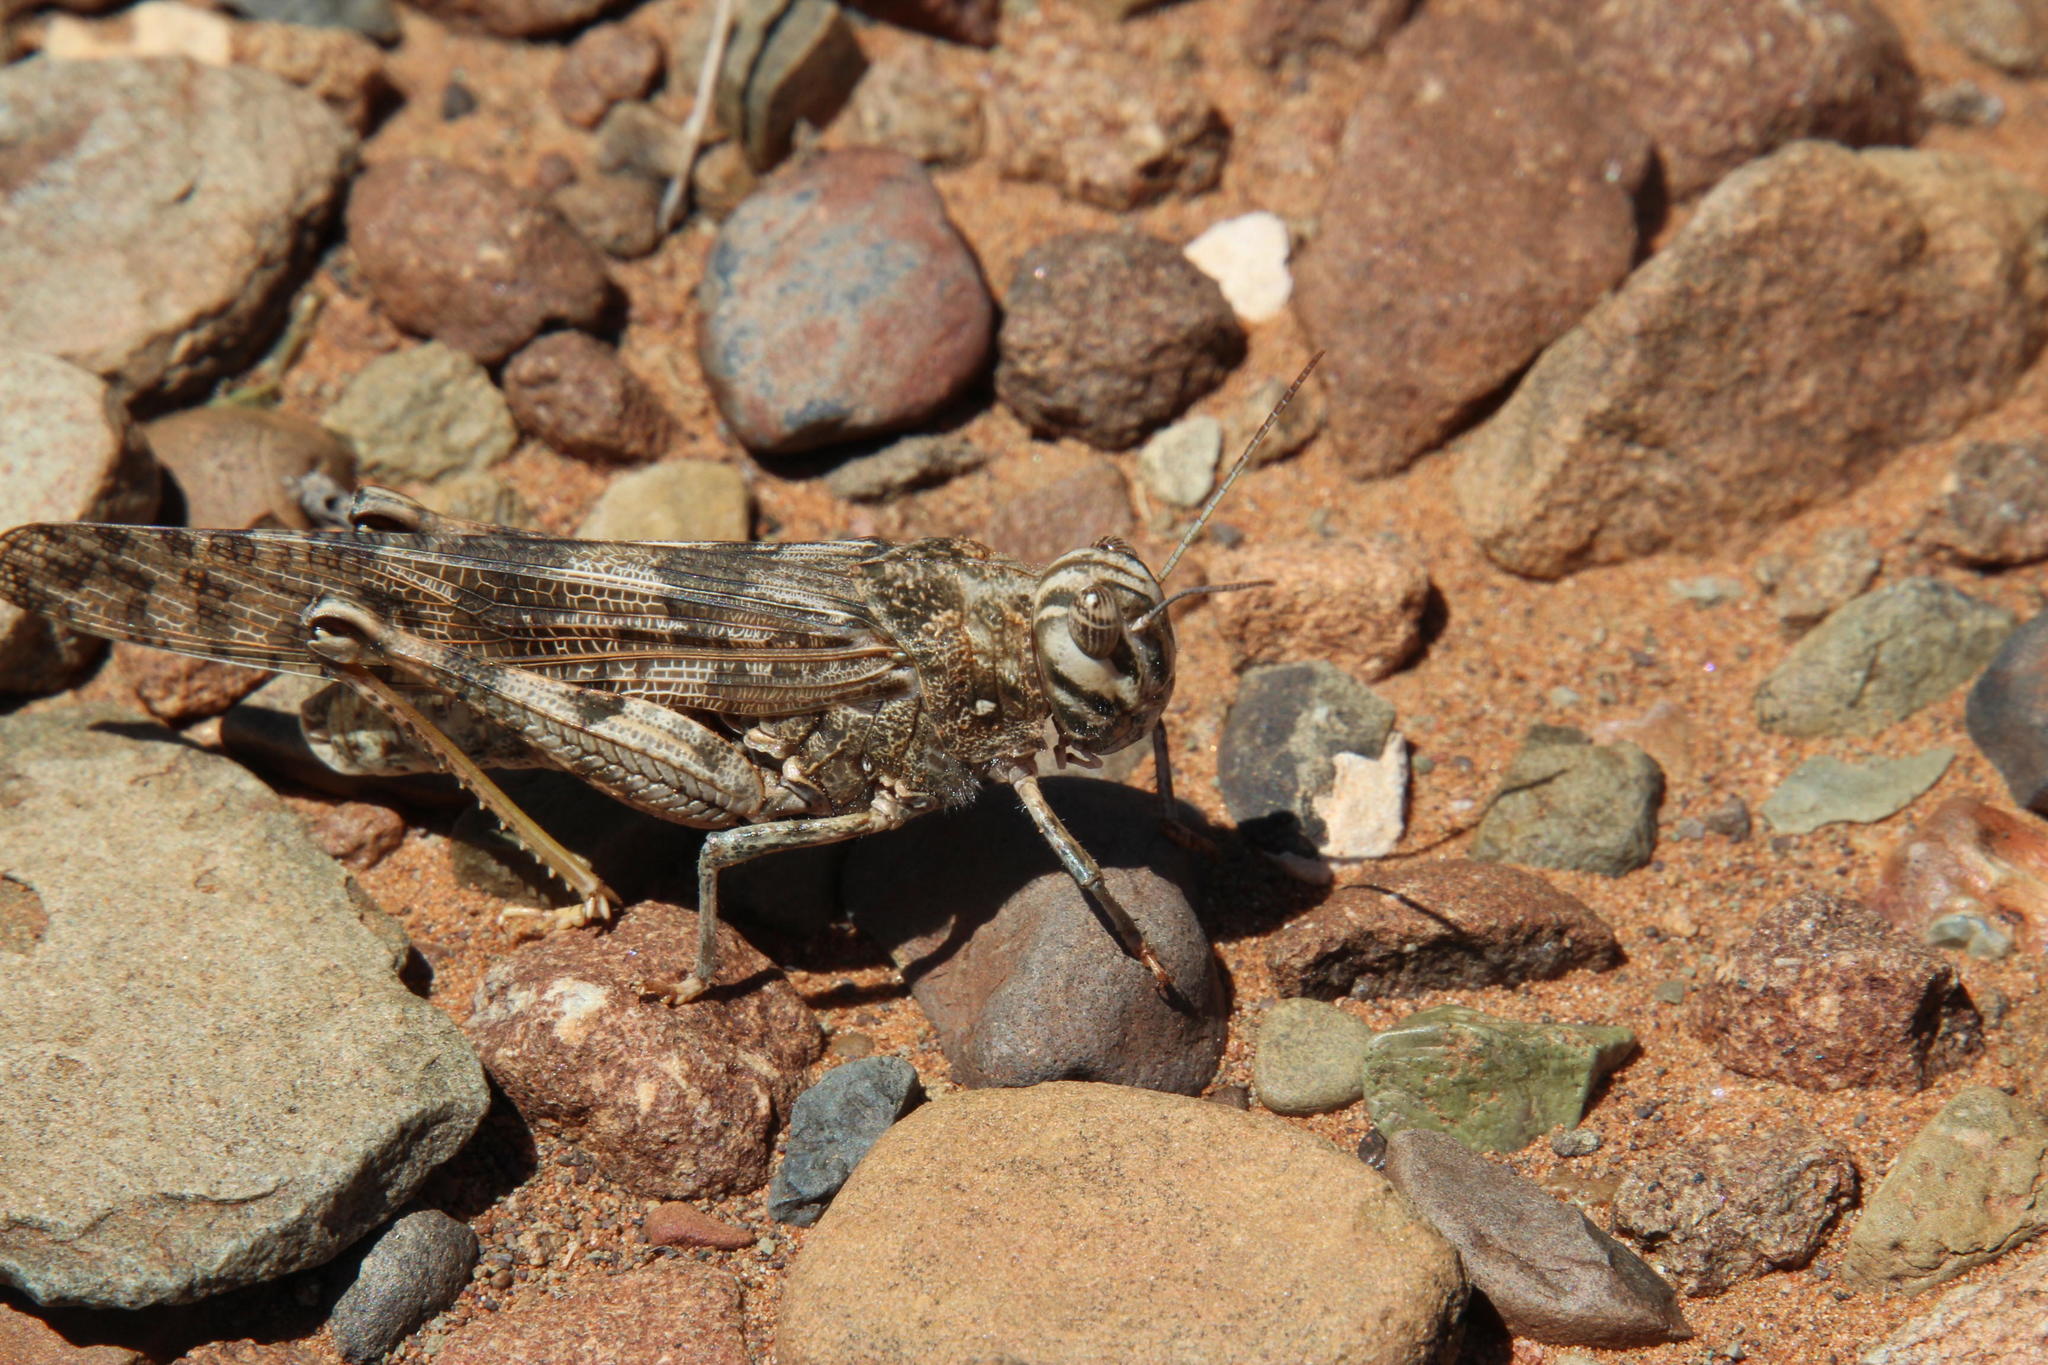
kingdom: Animalia
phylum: Arthropoda
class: Insecta
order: Orthoptera
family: Acrididae
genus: Locustana
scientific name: Locustana pardalina
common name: Brown locust
